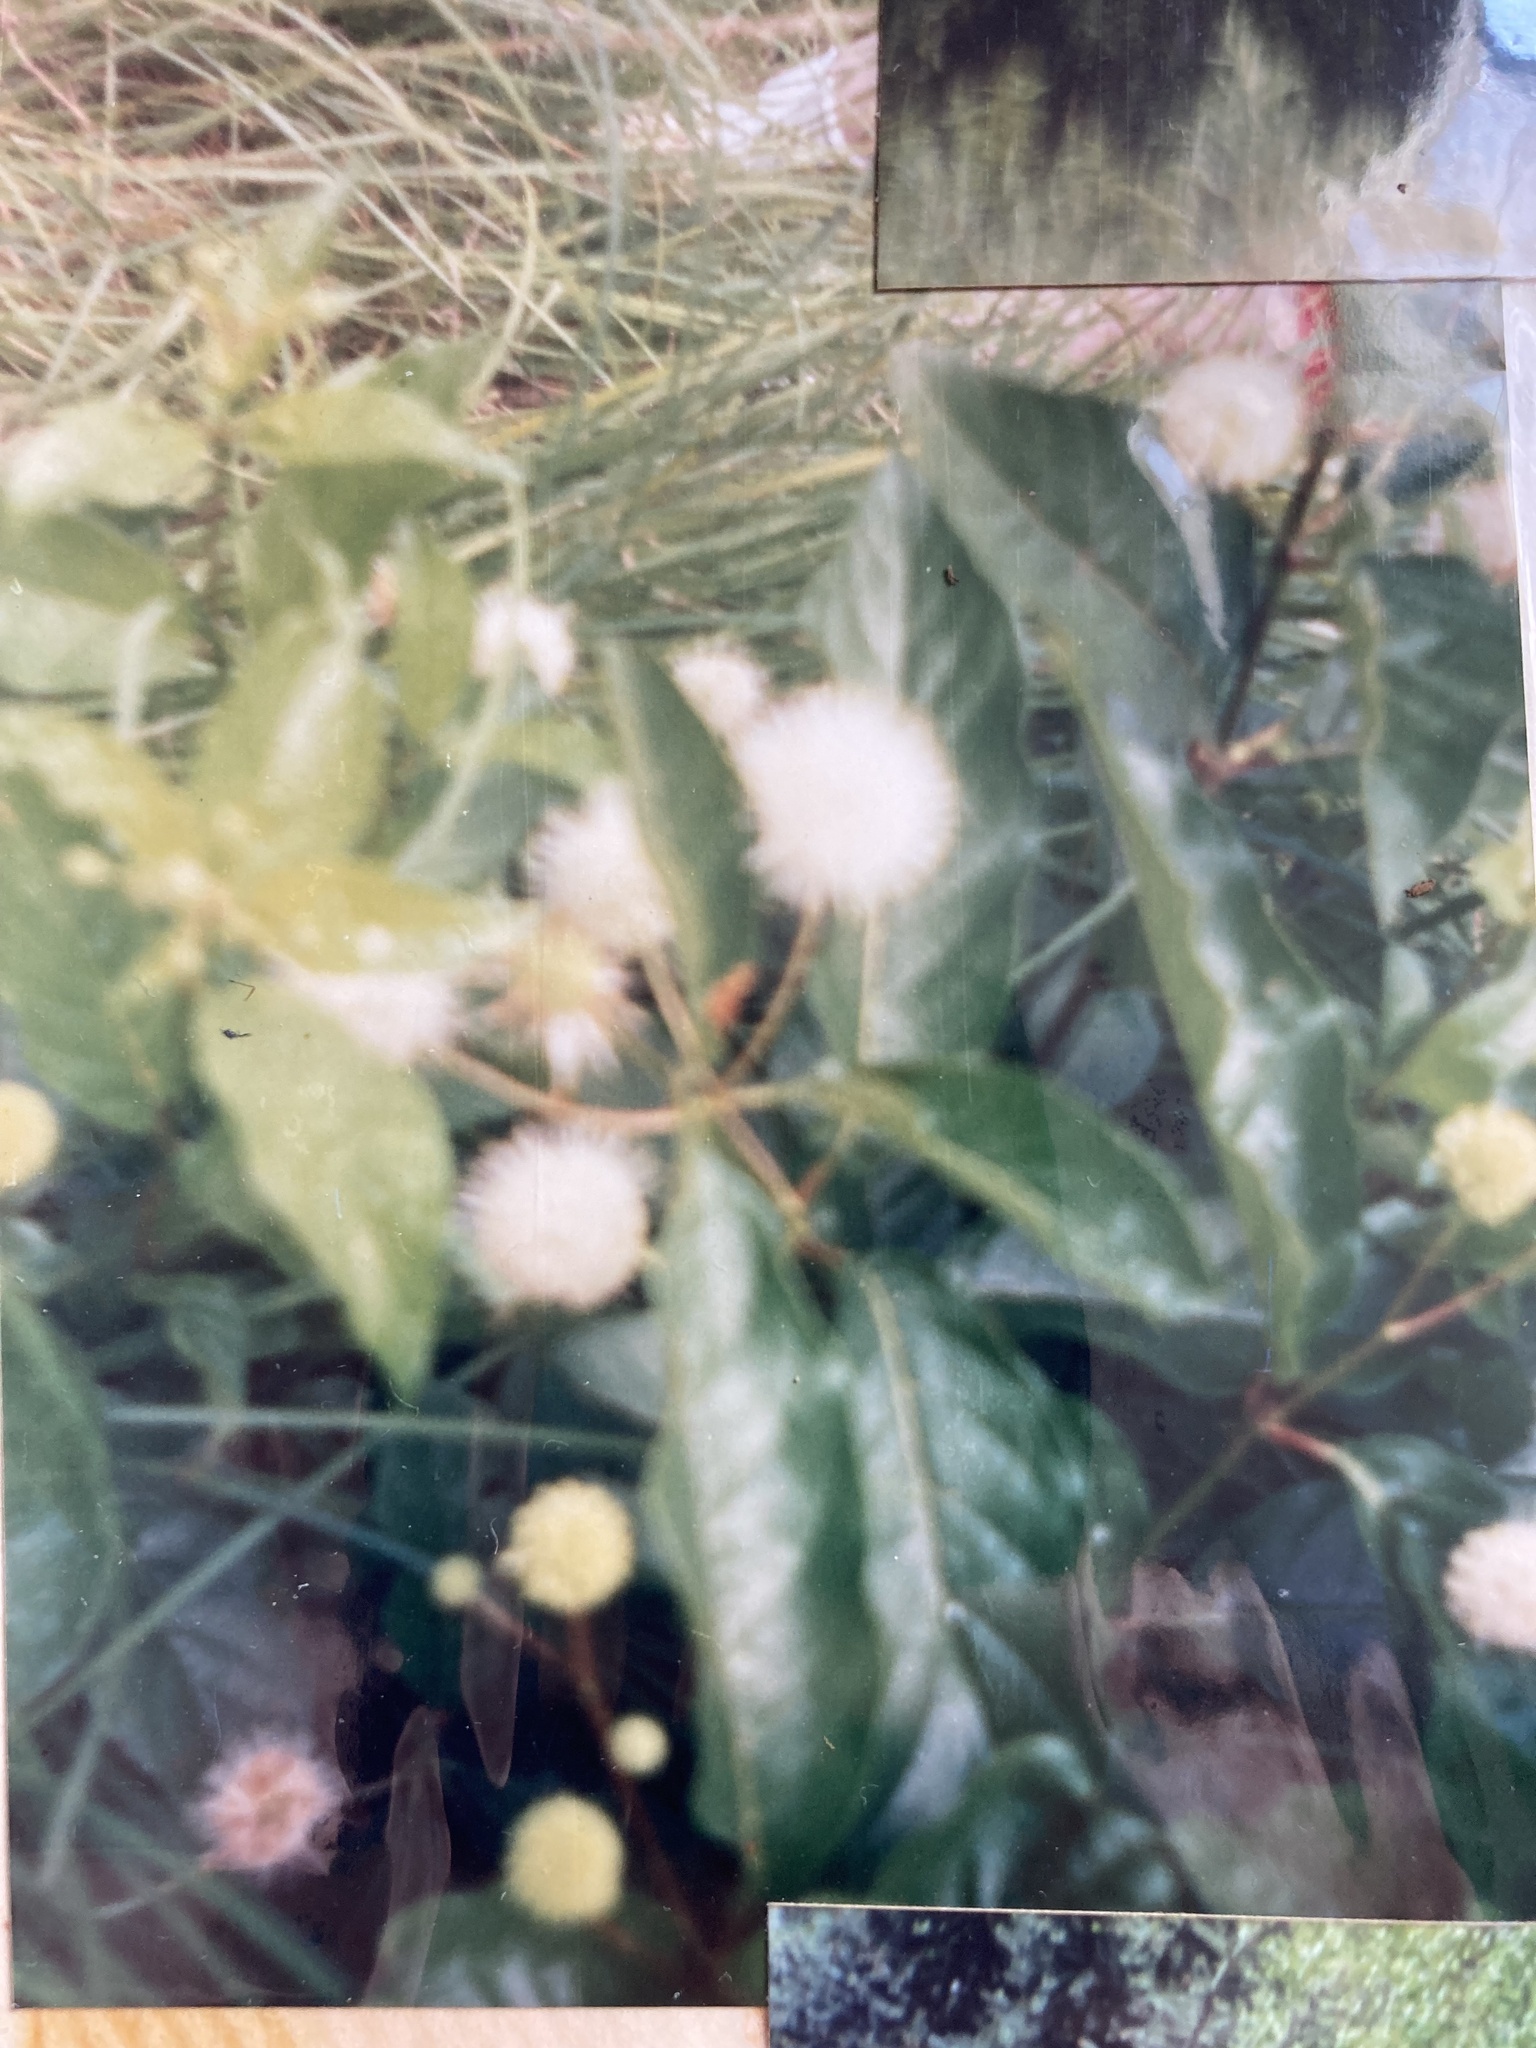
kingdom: Plantae
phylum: Tracheophyta
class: Magnoliopsida
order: Gentianales
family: Rubiaceae
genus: Cephalanthus
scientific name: Cephalanthus occidentalis
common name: Button-willow
